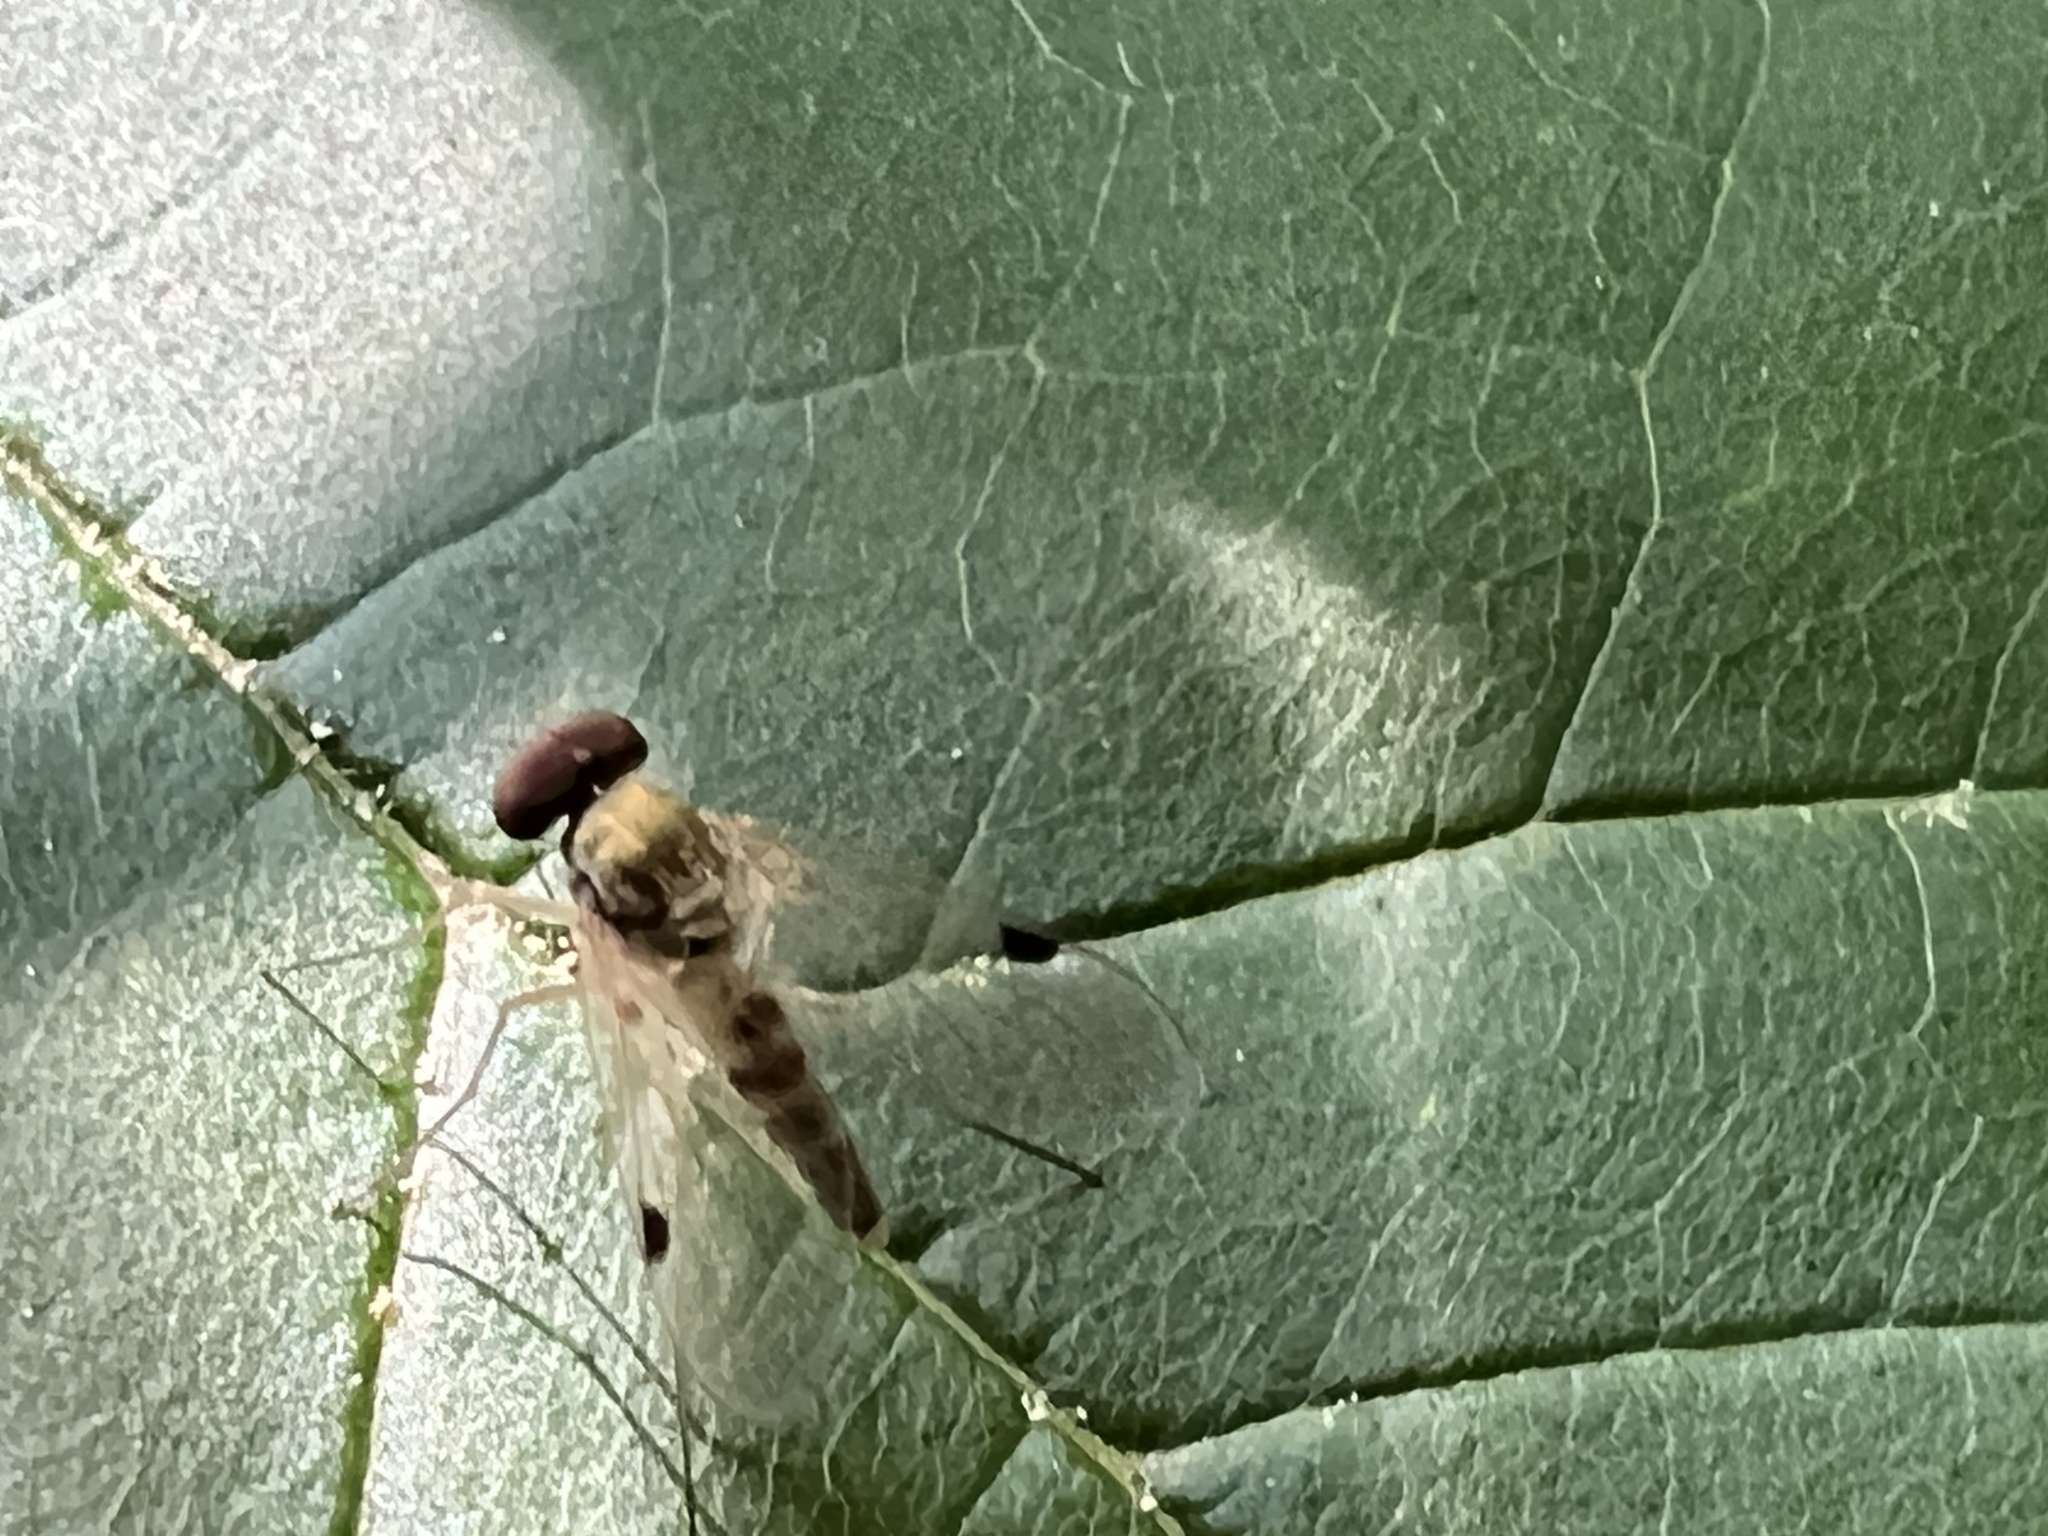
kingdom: Animalia
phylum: Arthropoda
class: Insecta
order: Diptera
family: Rhagionidae
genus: Chrysopilus
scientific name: Chrysopilus modestus
